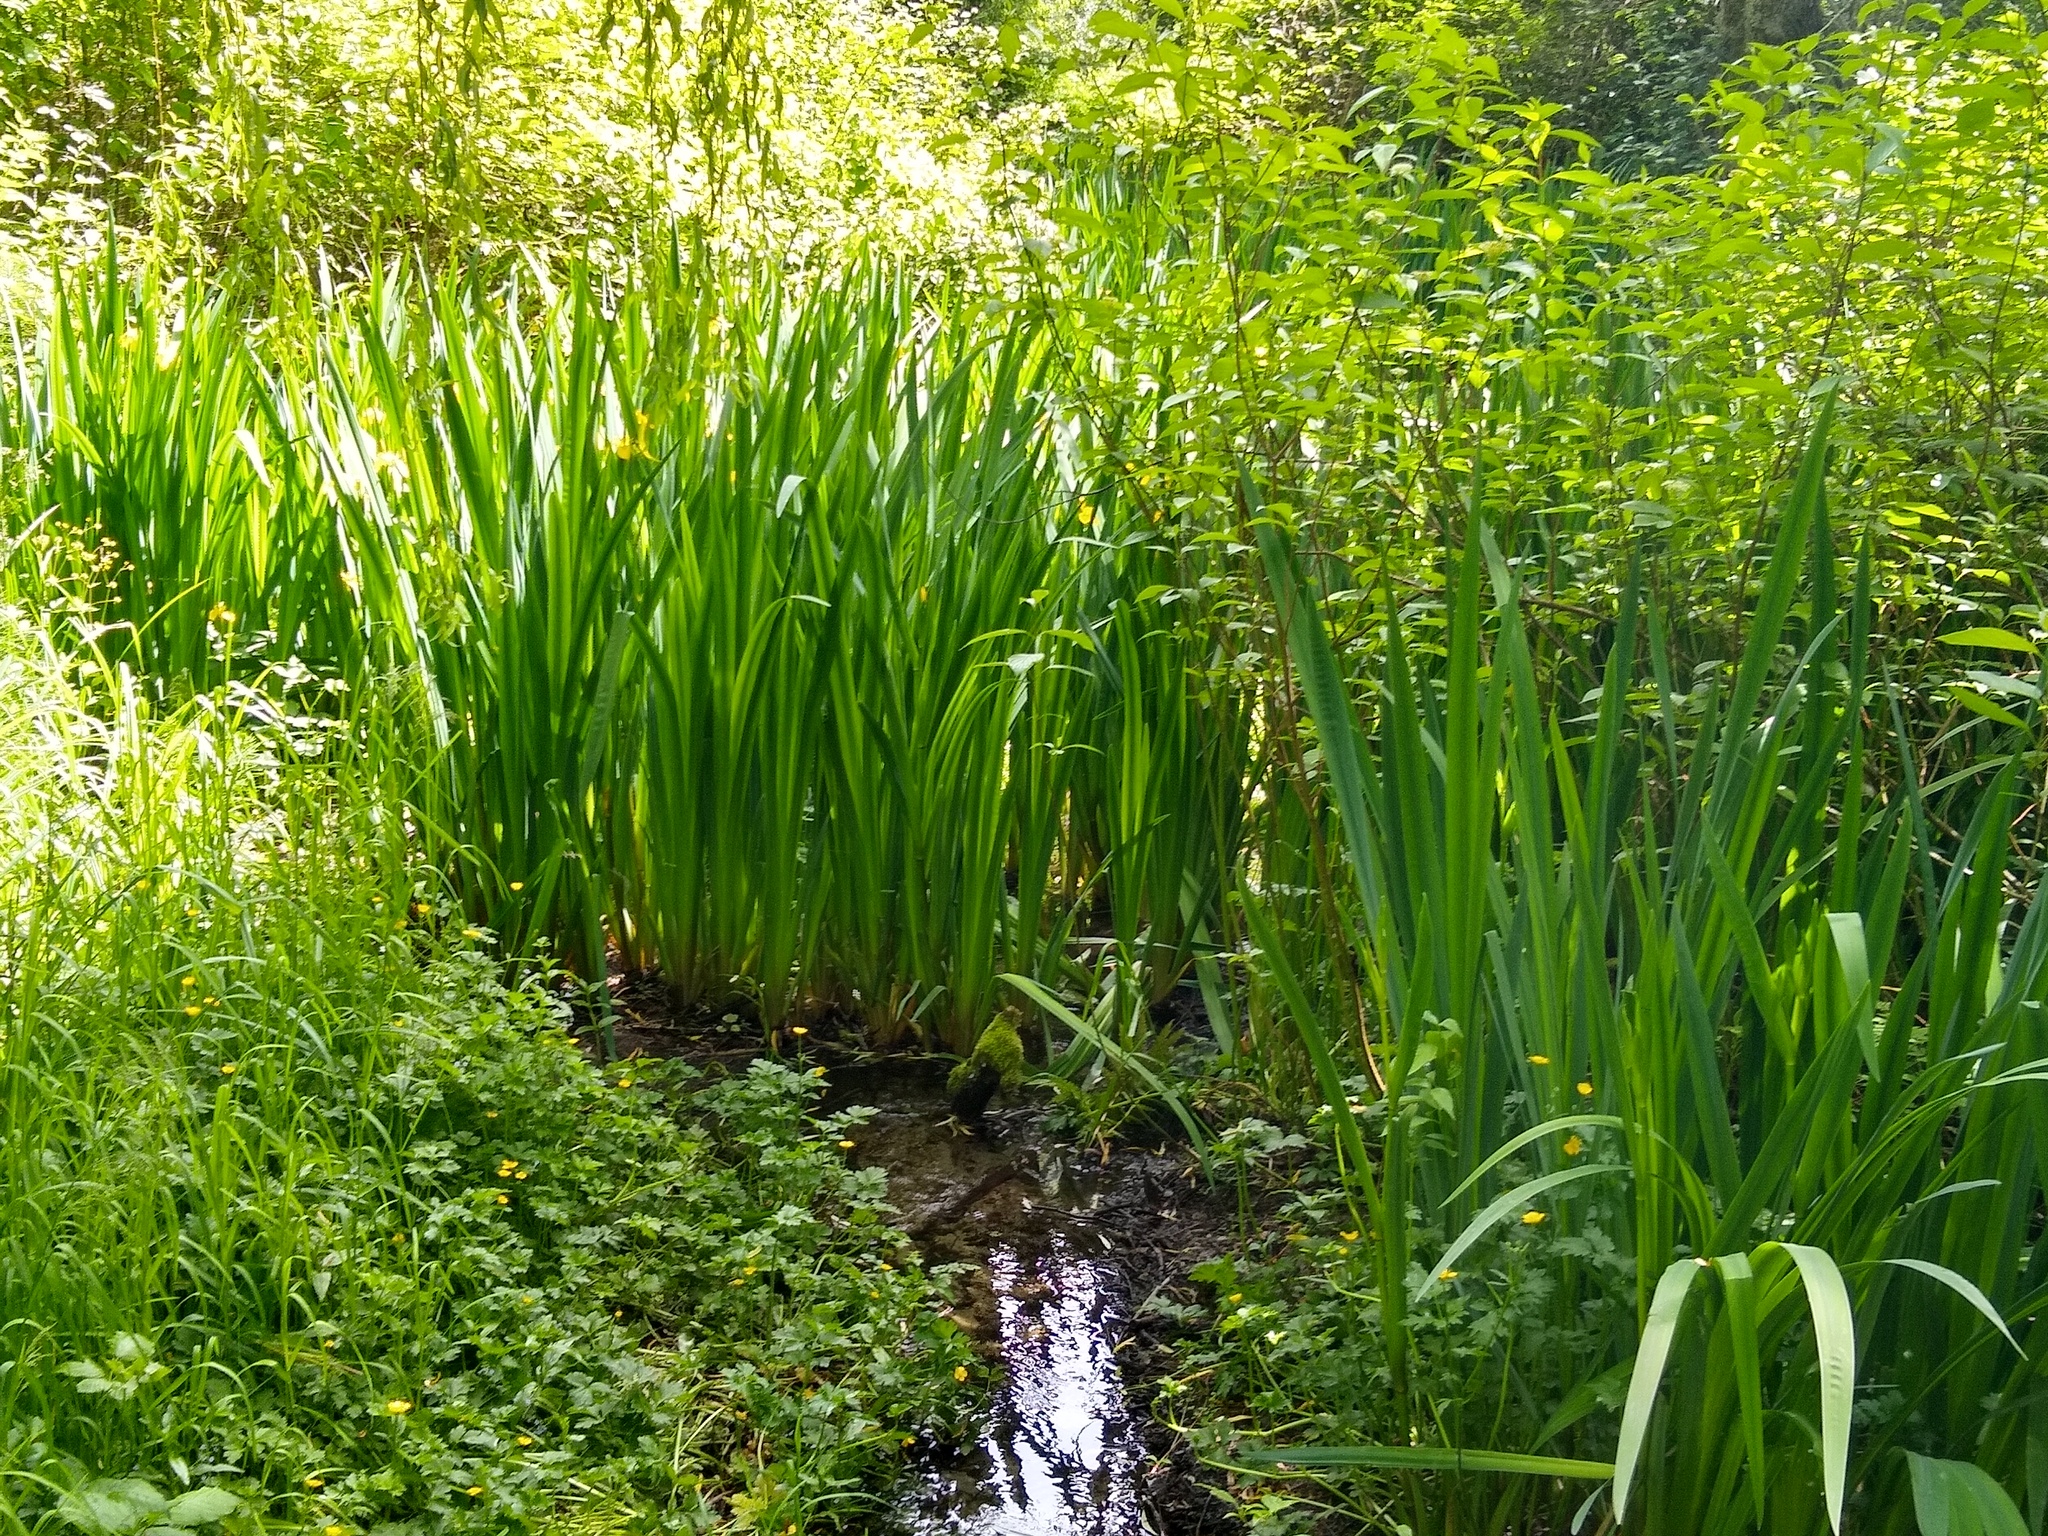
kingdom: Plantae
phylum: Tracheophyta
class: Liliopsida
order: Asparagales
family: Iridaceae
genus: Iris
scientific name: Iris pseudacorus
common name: Yellow flag
